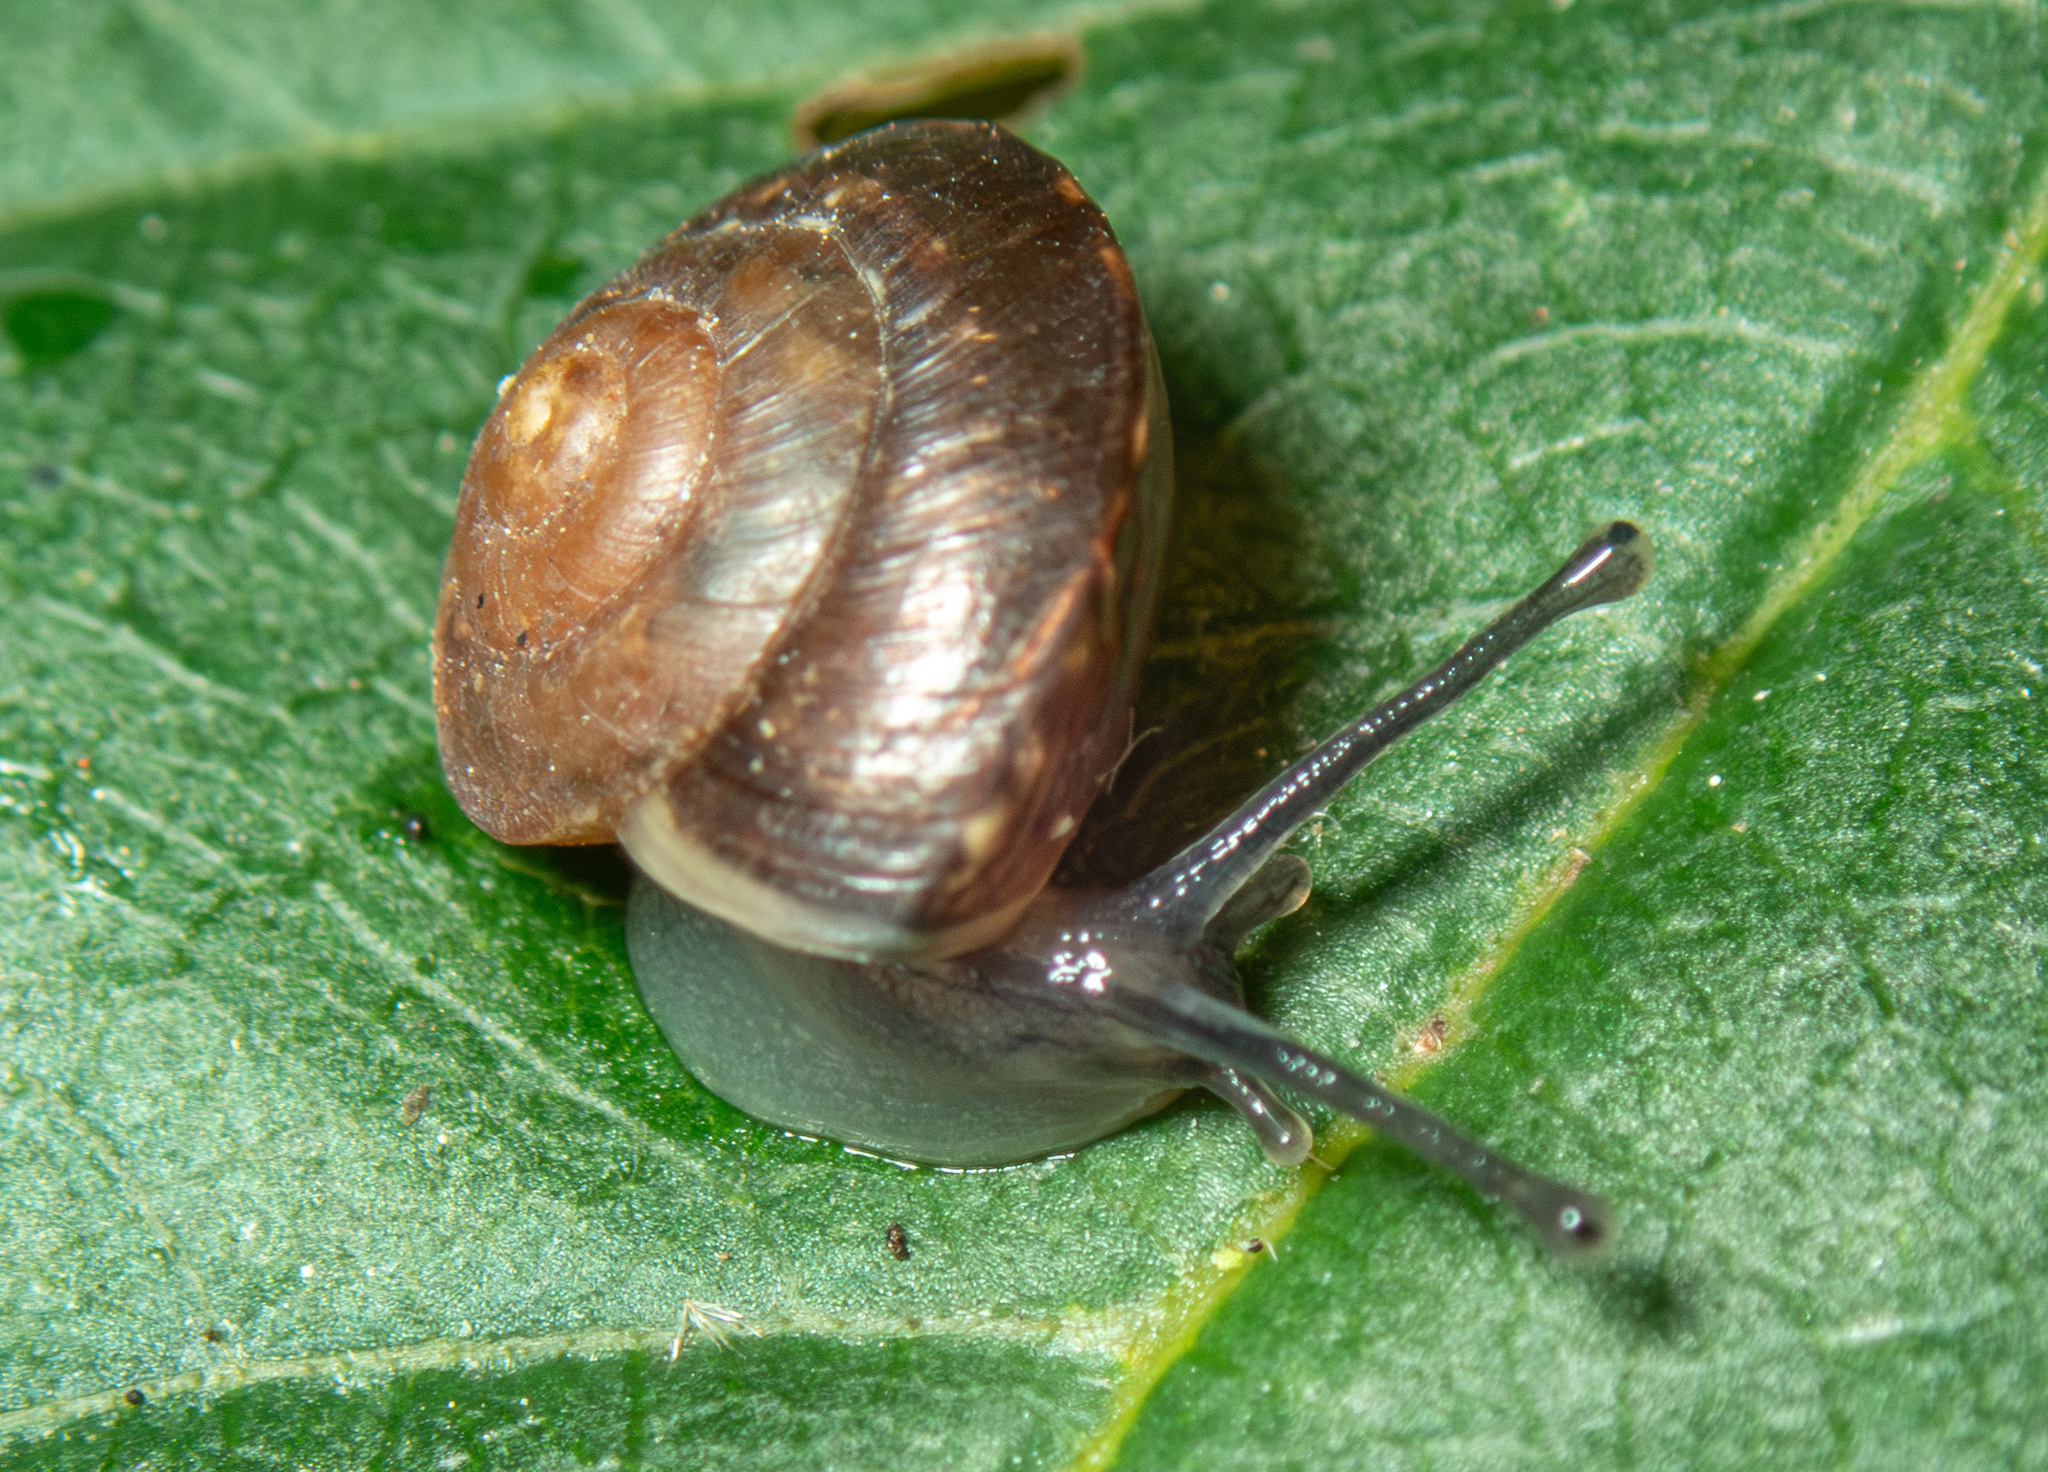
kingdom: Animalia
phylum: Mollusca
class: Gastropoda
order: Stylommatophora
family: Hygromiidae
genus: Hygromia
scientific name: Hygromia cinctella
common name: Girdled snail
